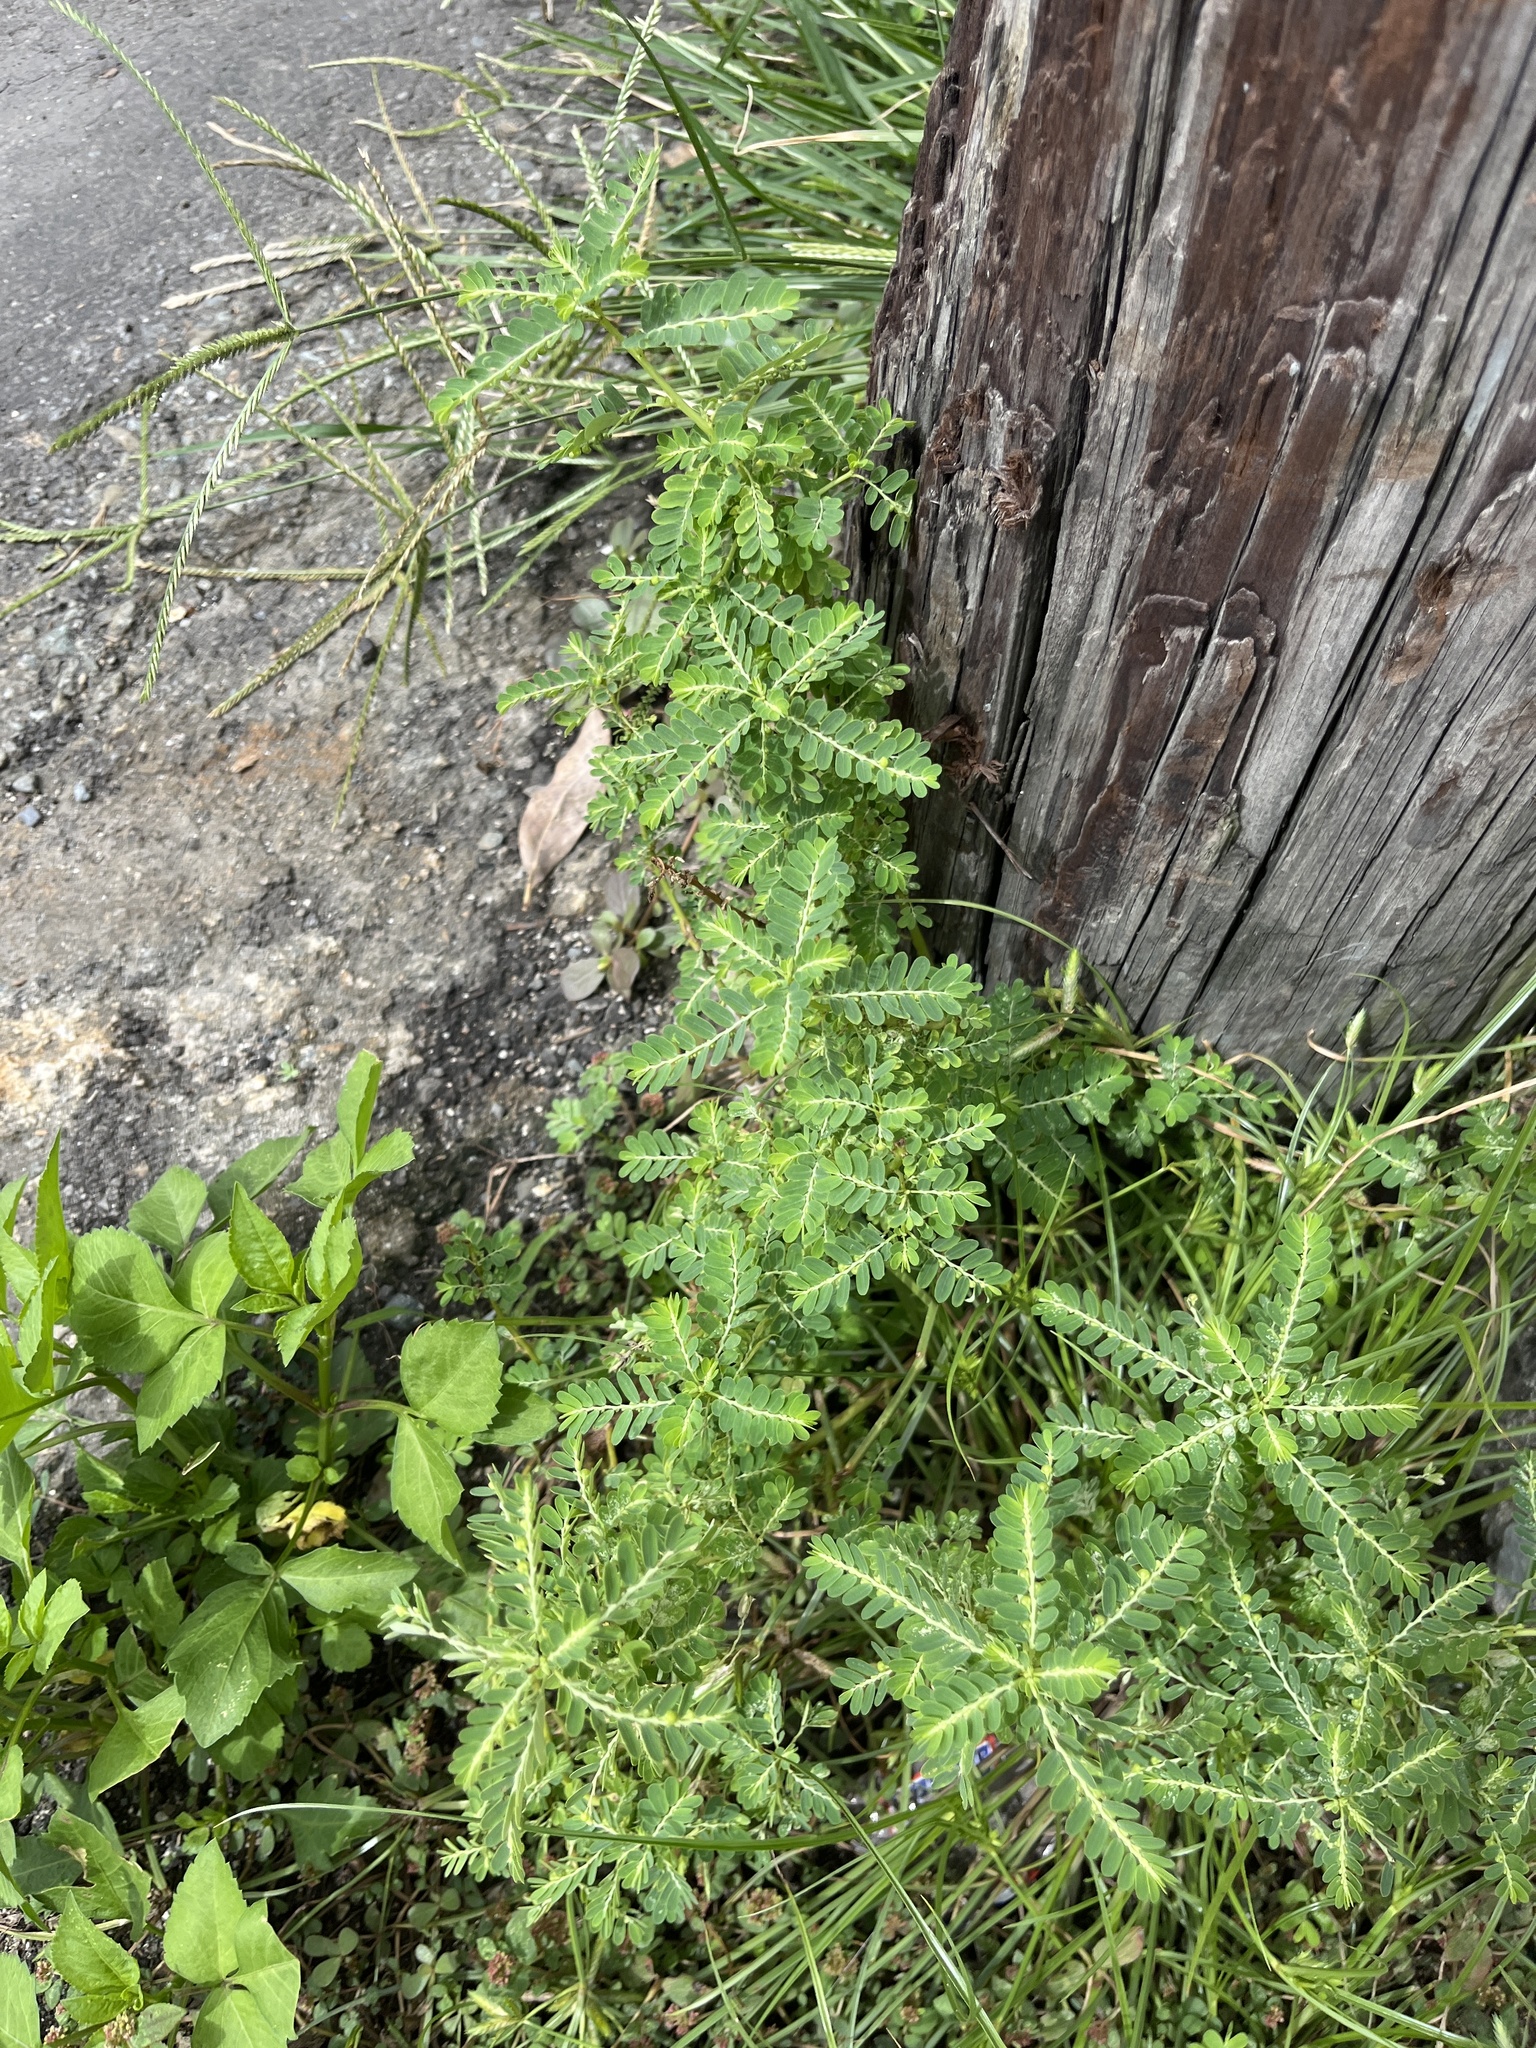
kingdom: Plantae
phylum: Tracheophyta
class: Magnoliopsida
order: Malpighiales
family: Phyllanthaceae
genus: Phyllanthus
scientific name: Phyllanthus amarus
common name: Carry me seed
